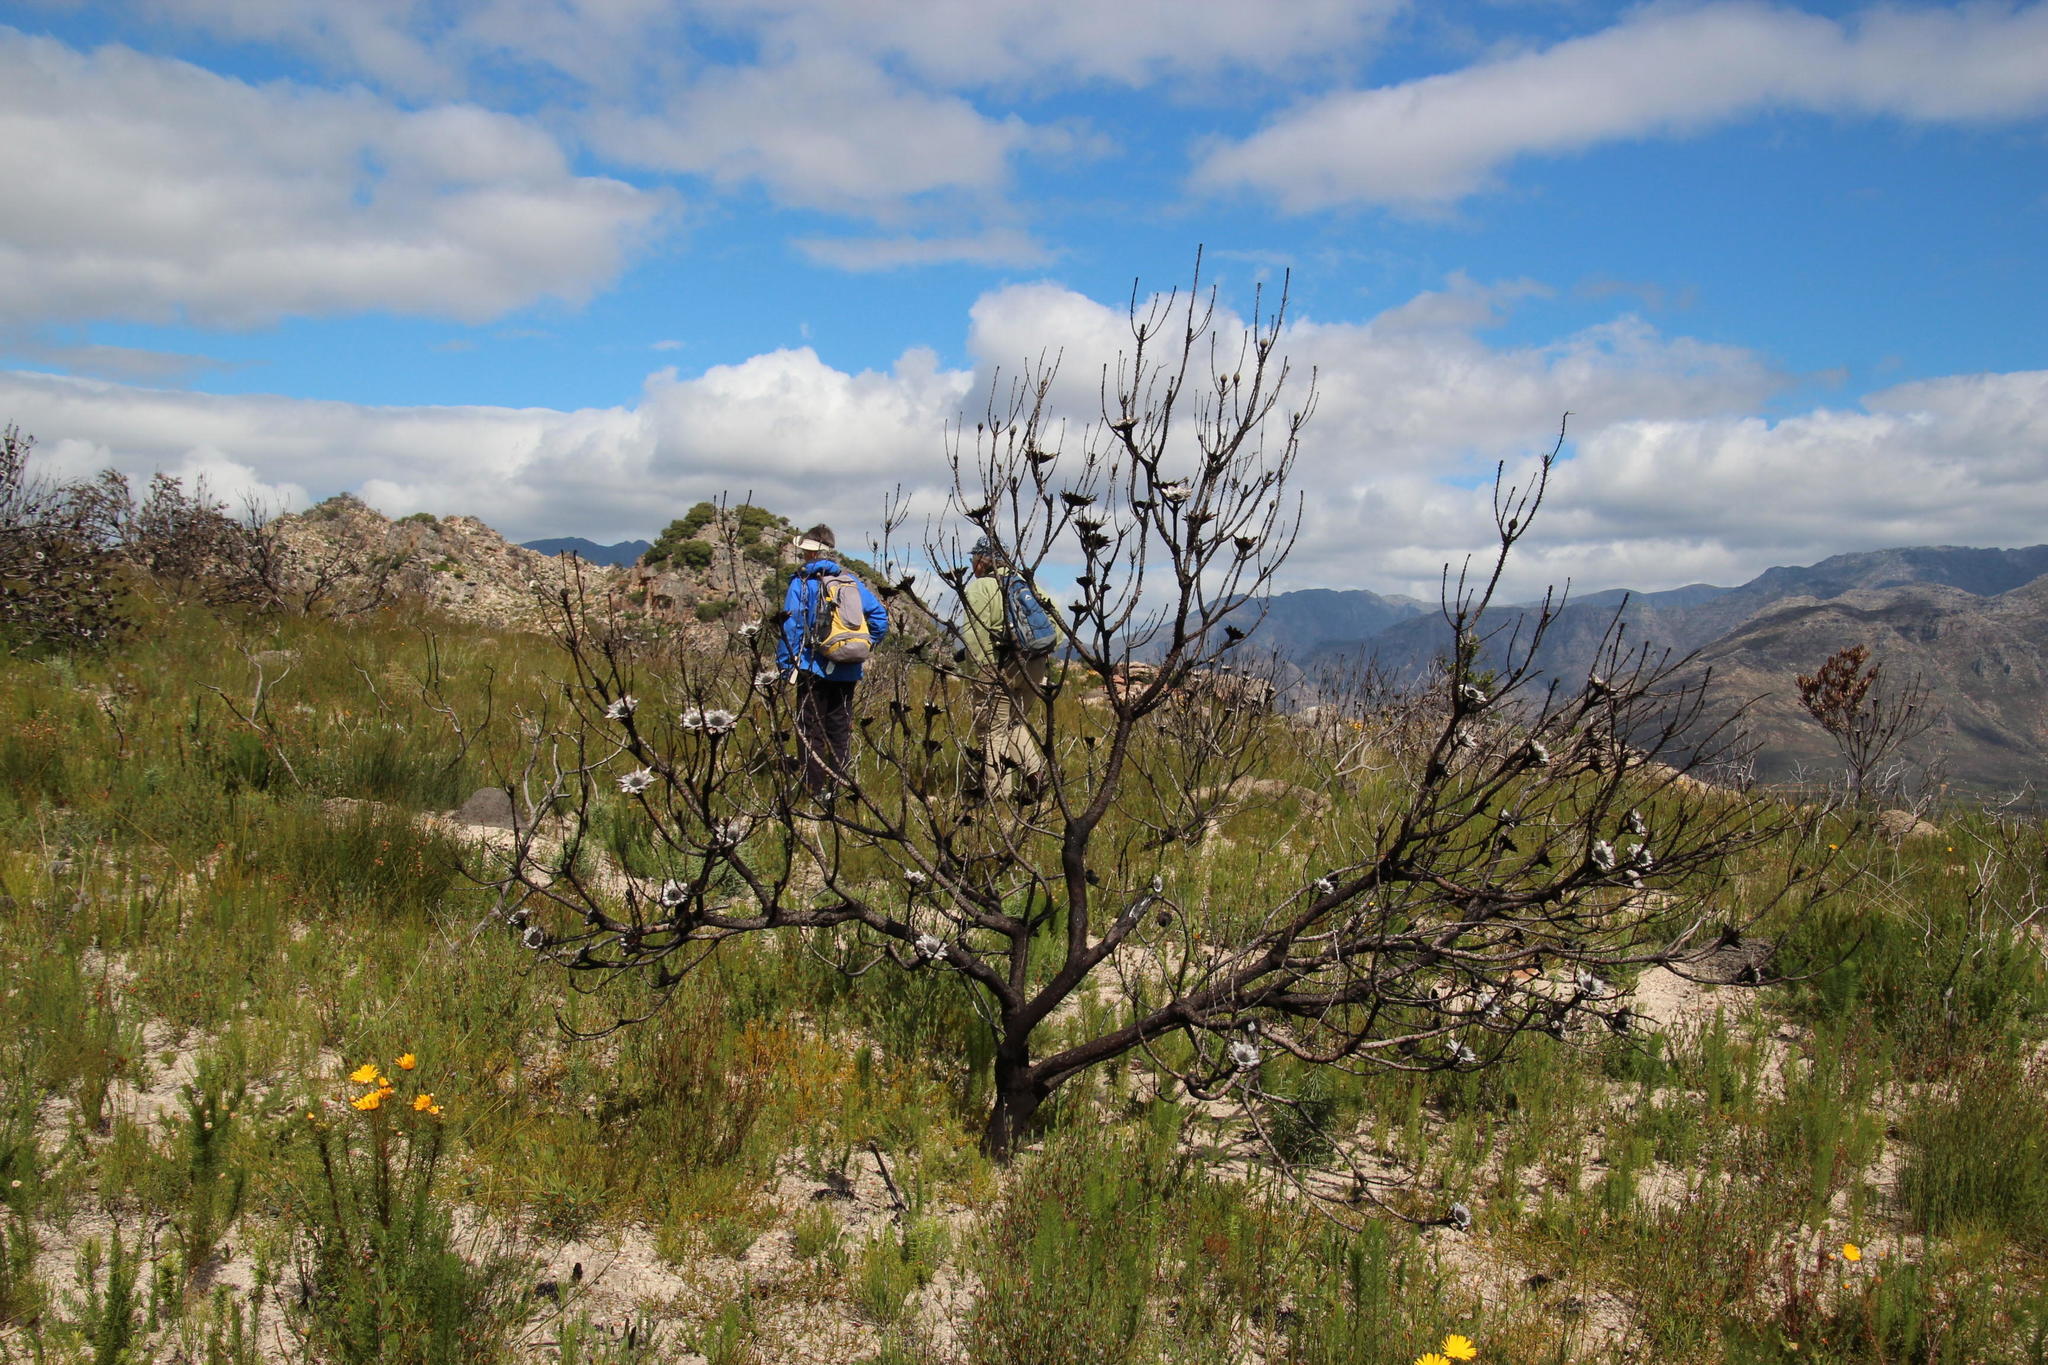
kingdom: Plantae
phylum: Tracheophyta
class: Magnoliopsida
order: Proteales
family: Proteaceae
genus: Protea
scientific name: Protea repens
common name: Sugarbush
